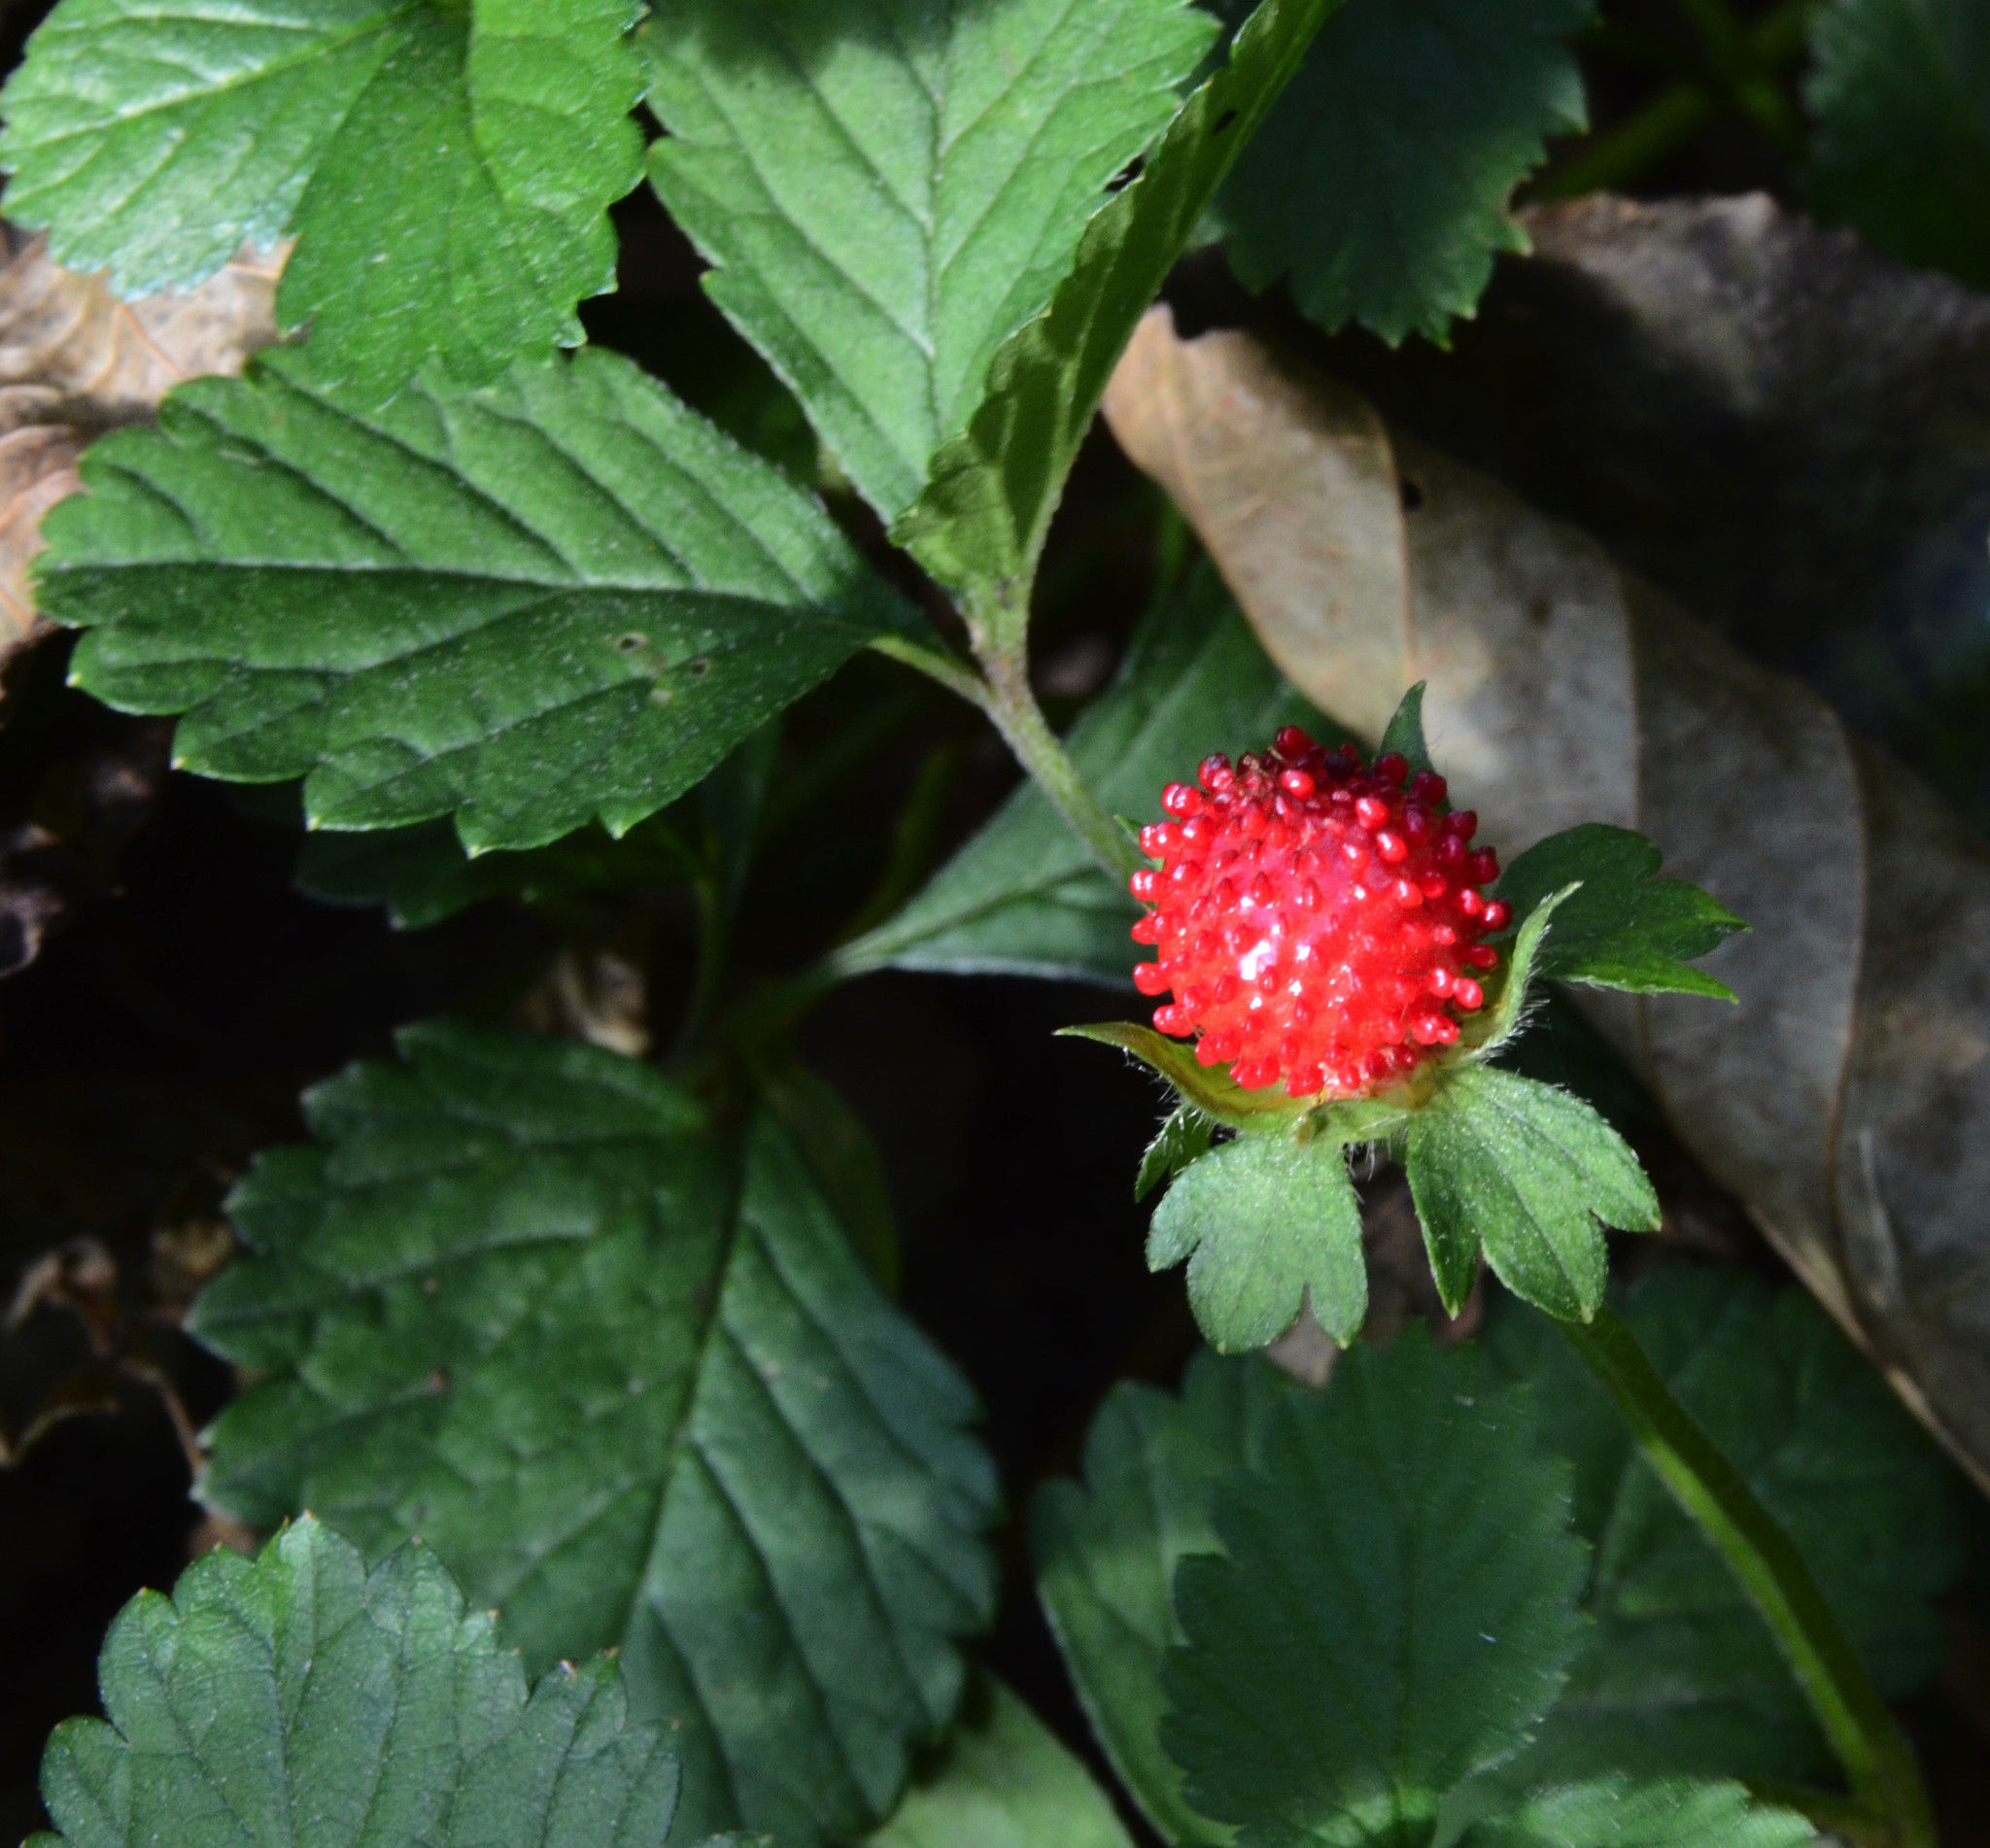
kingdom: Plantae
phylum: Tracheophyta
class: Magnoliopsida
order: Rosales
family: Rosaceae
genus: Potentilla
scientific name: Potentilla indica
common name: Yellow-flowered strawberry
